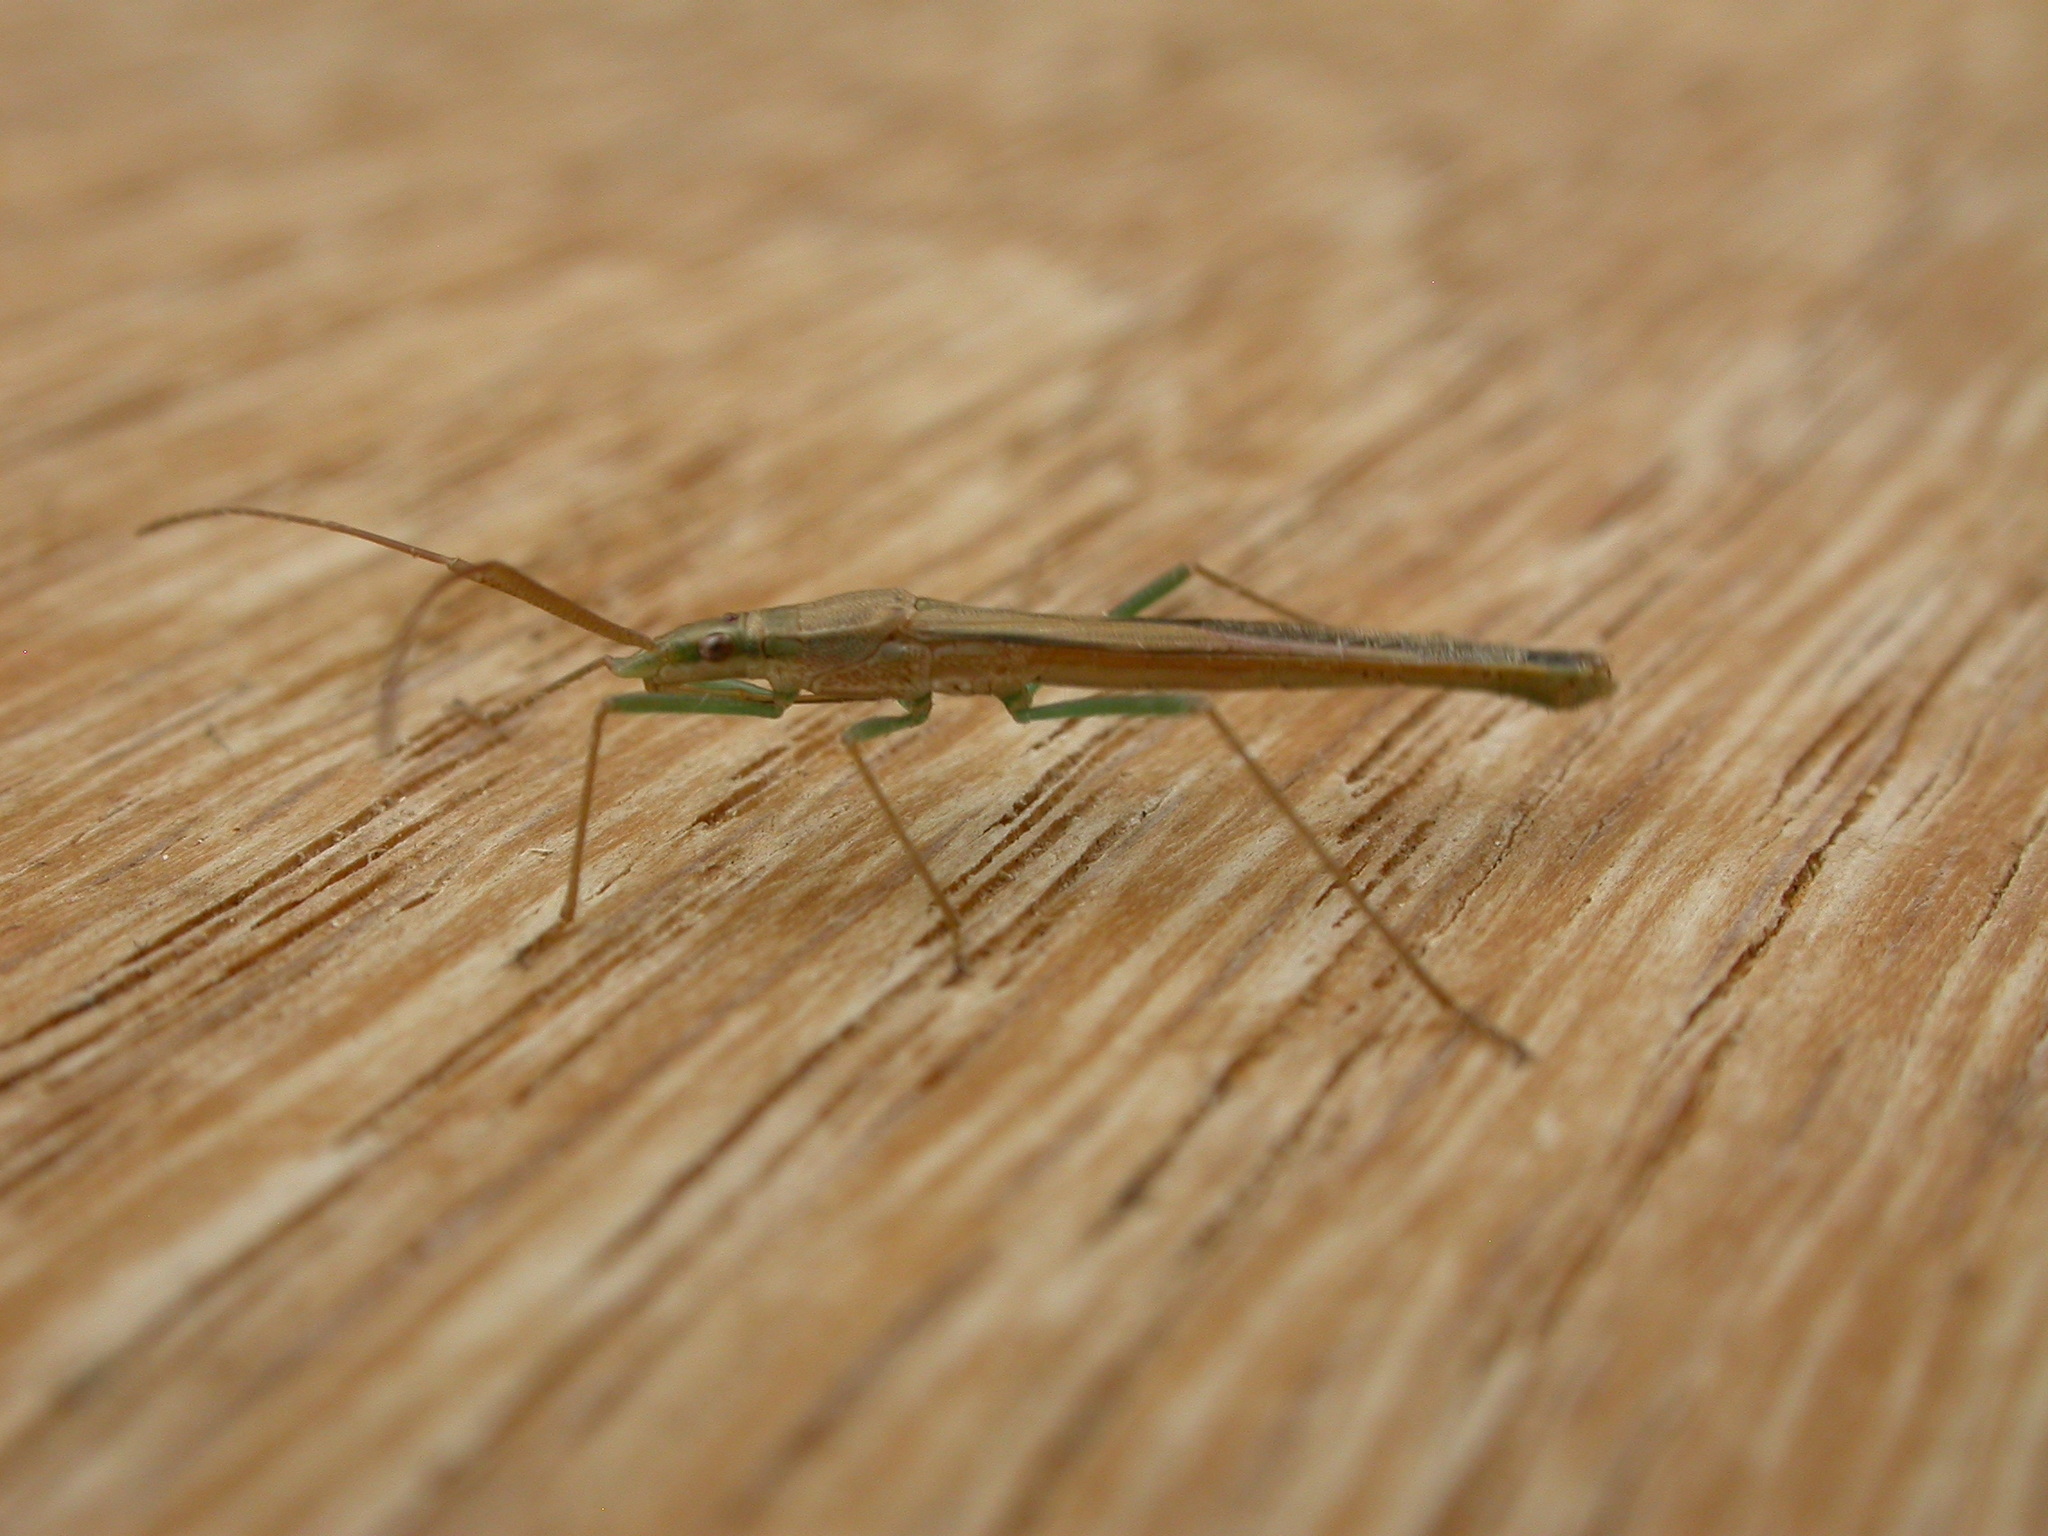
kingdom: Animalia
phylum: Arthropoda
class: Insecta
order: Hemiptera
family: Alydidae
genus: Mutusca
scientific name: Mutusca brevicornis
